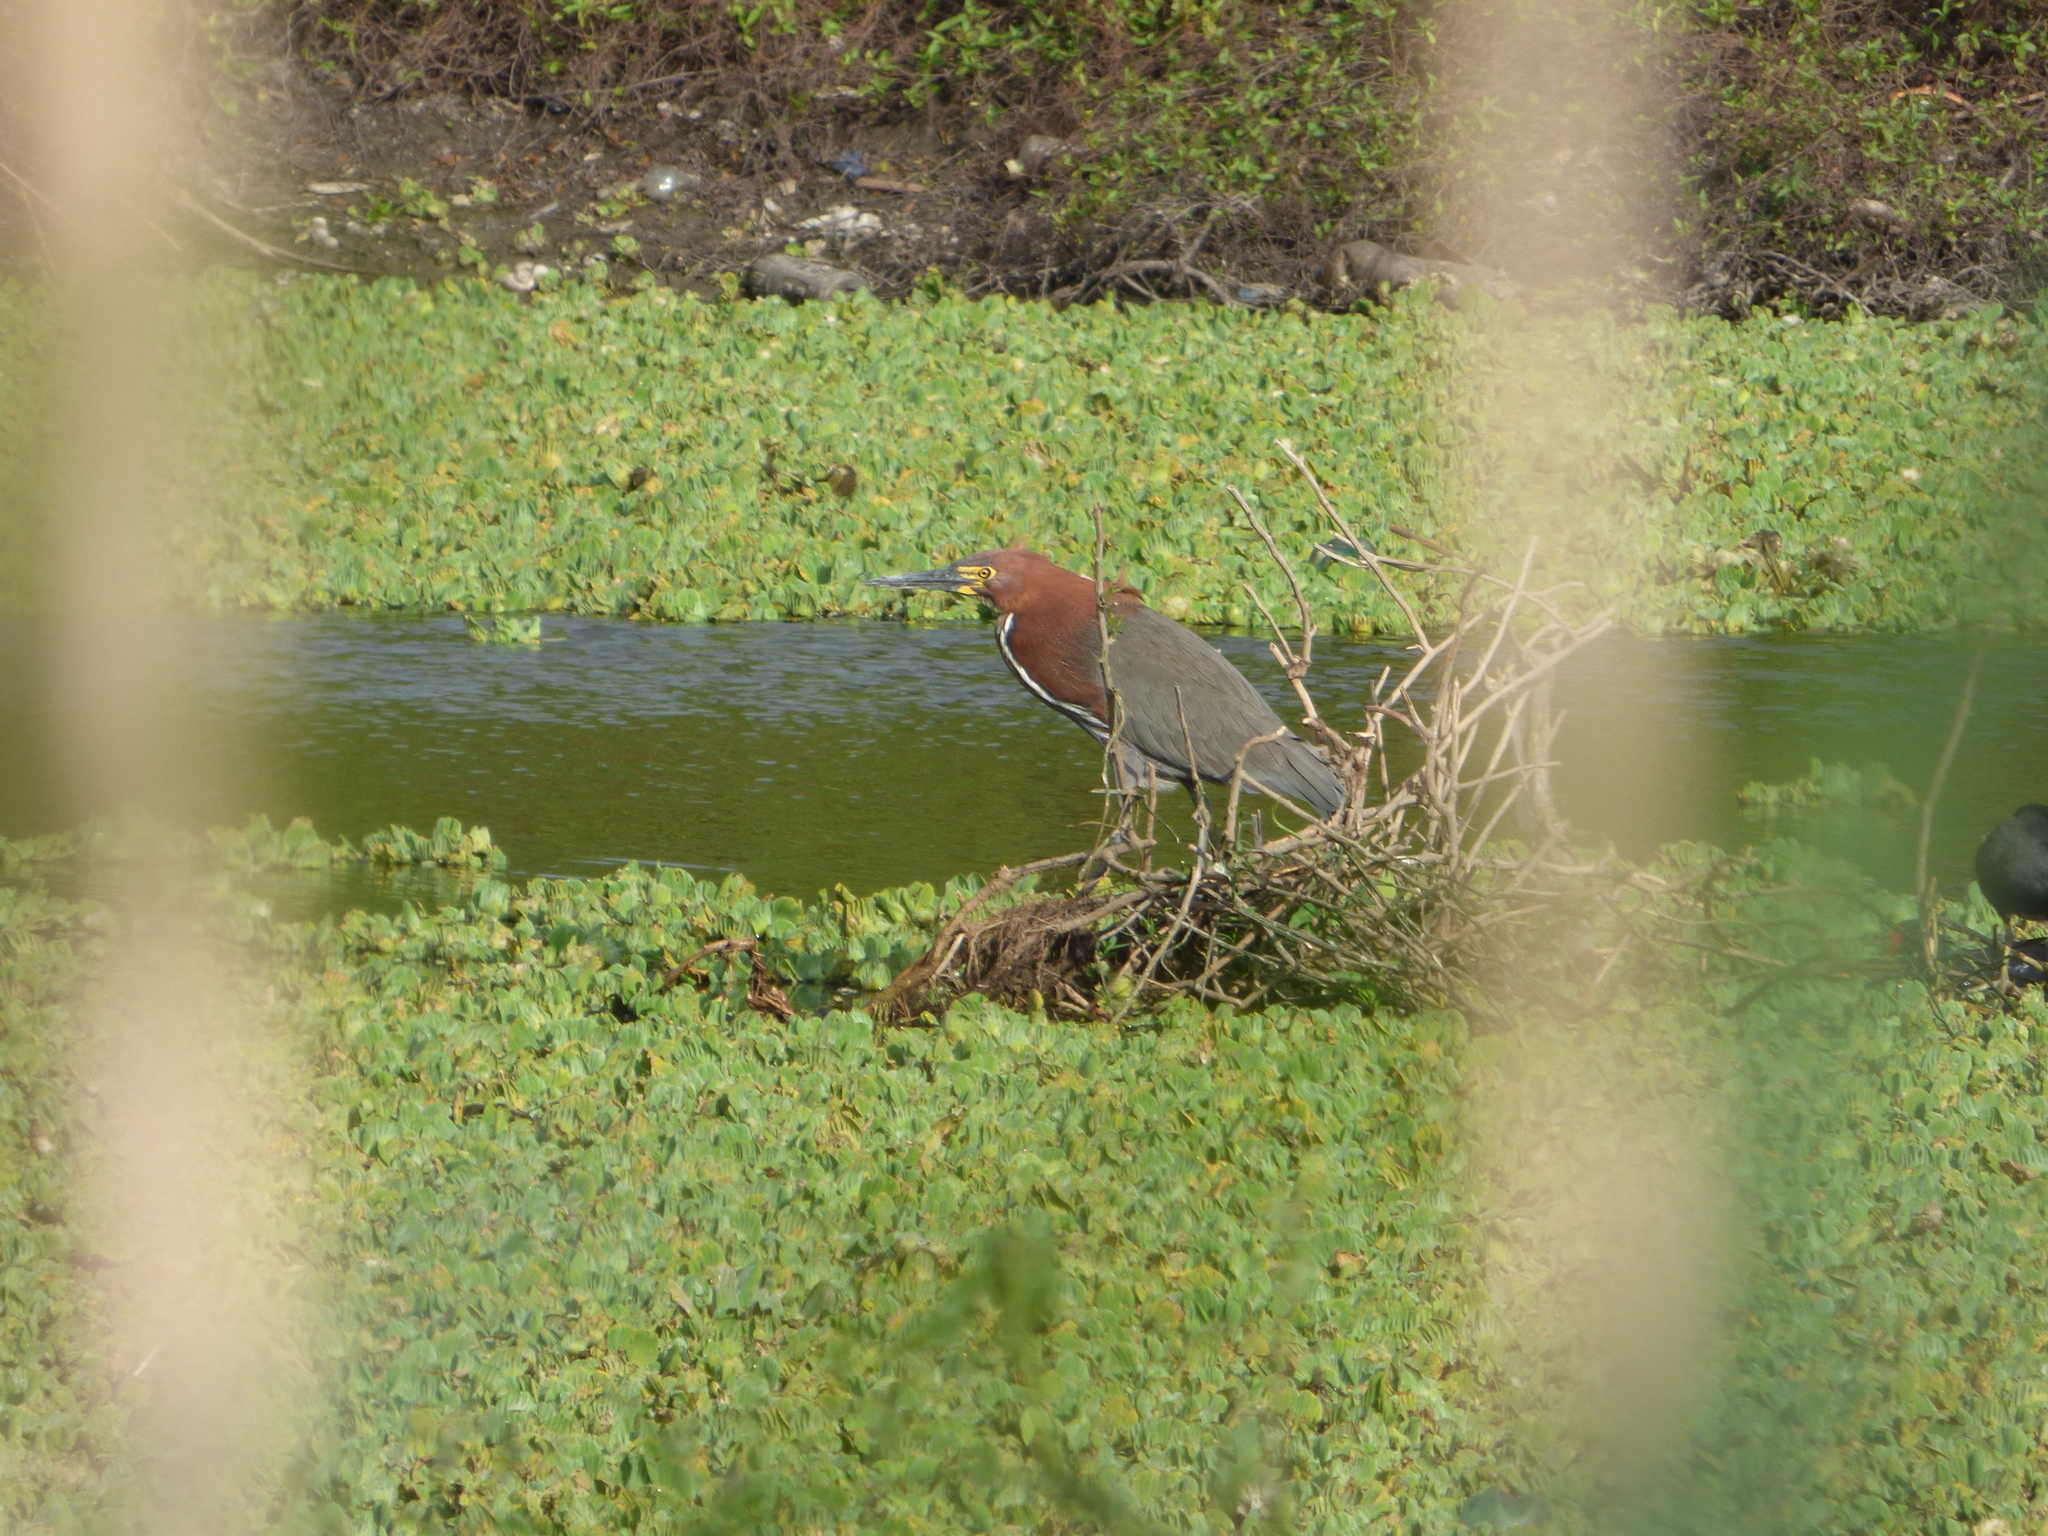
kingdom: Animalia
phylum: Chordata
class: Aves
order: Pelecaniformes
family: Ardeidae
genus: Tigrisoma
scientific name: Tigrisoma lineatum
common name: Rufescent tiger-heron
